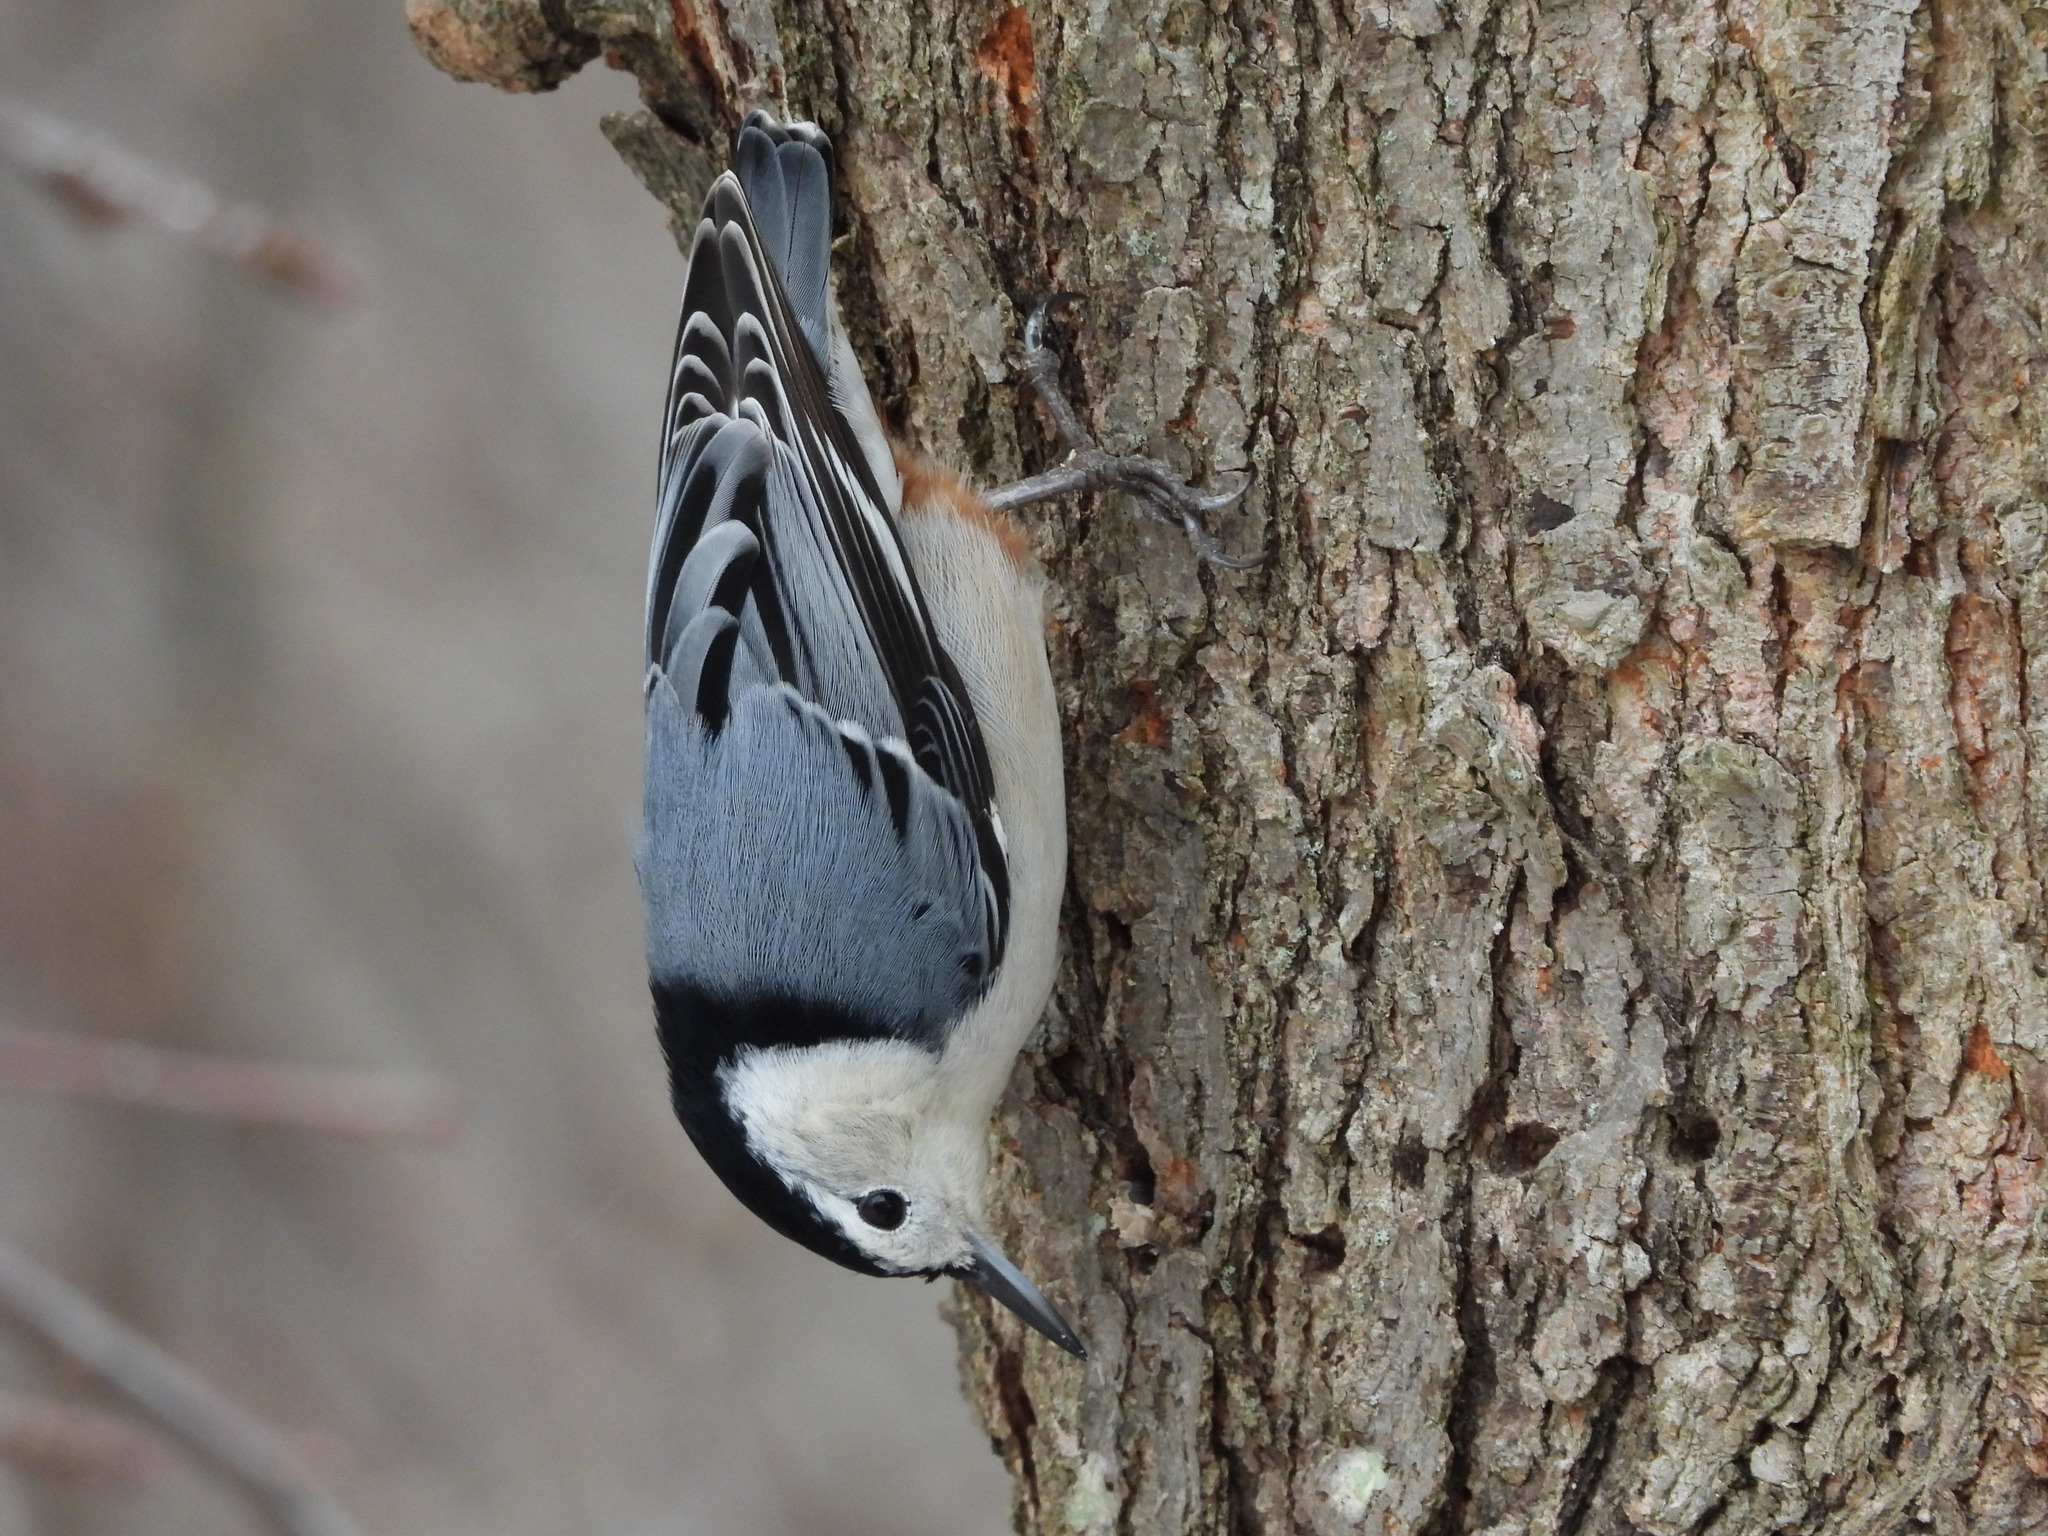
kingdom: Animalia
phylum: Chordata
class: Aves
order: Passeriformes
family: Sittidae
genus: Sitta
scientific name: Sitta carolinensis
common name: White-breasted nuthatch
